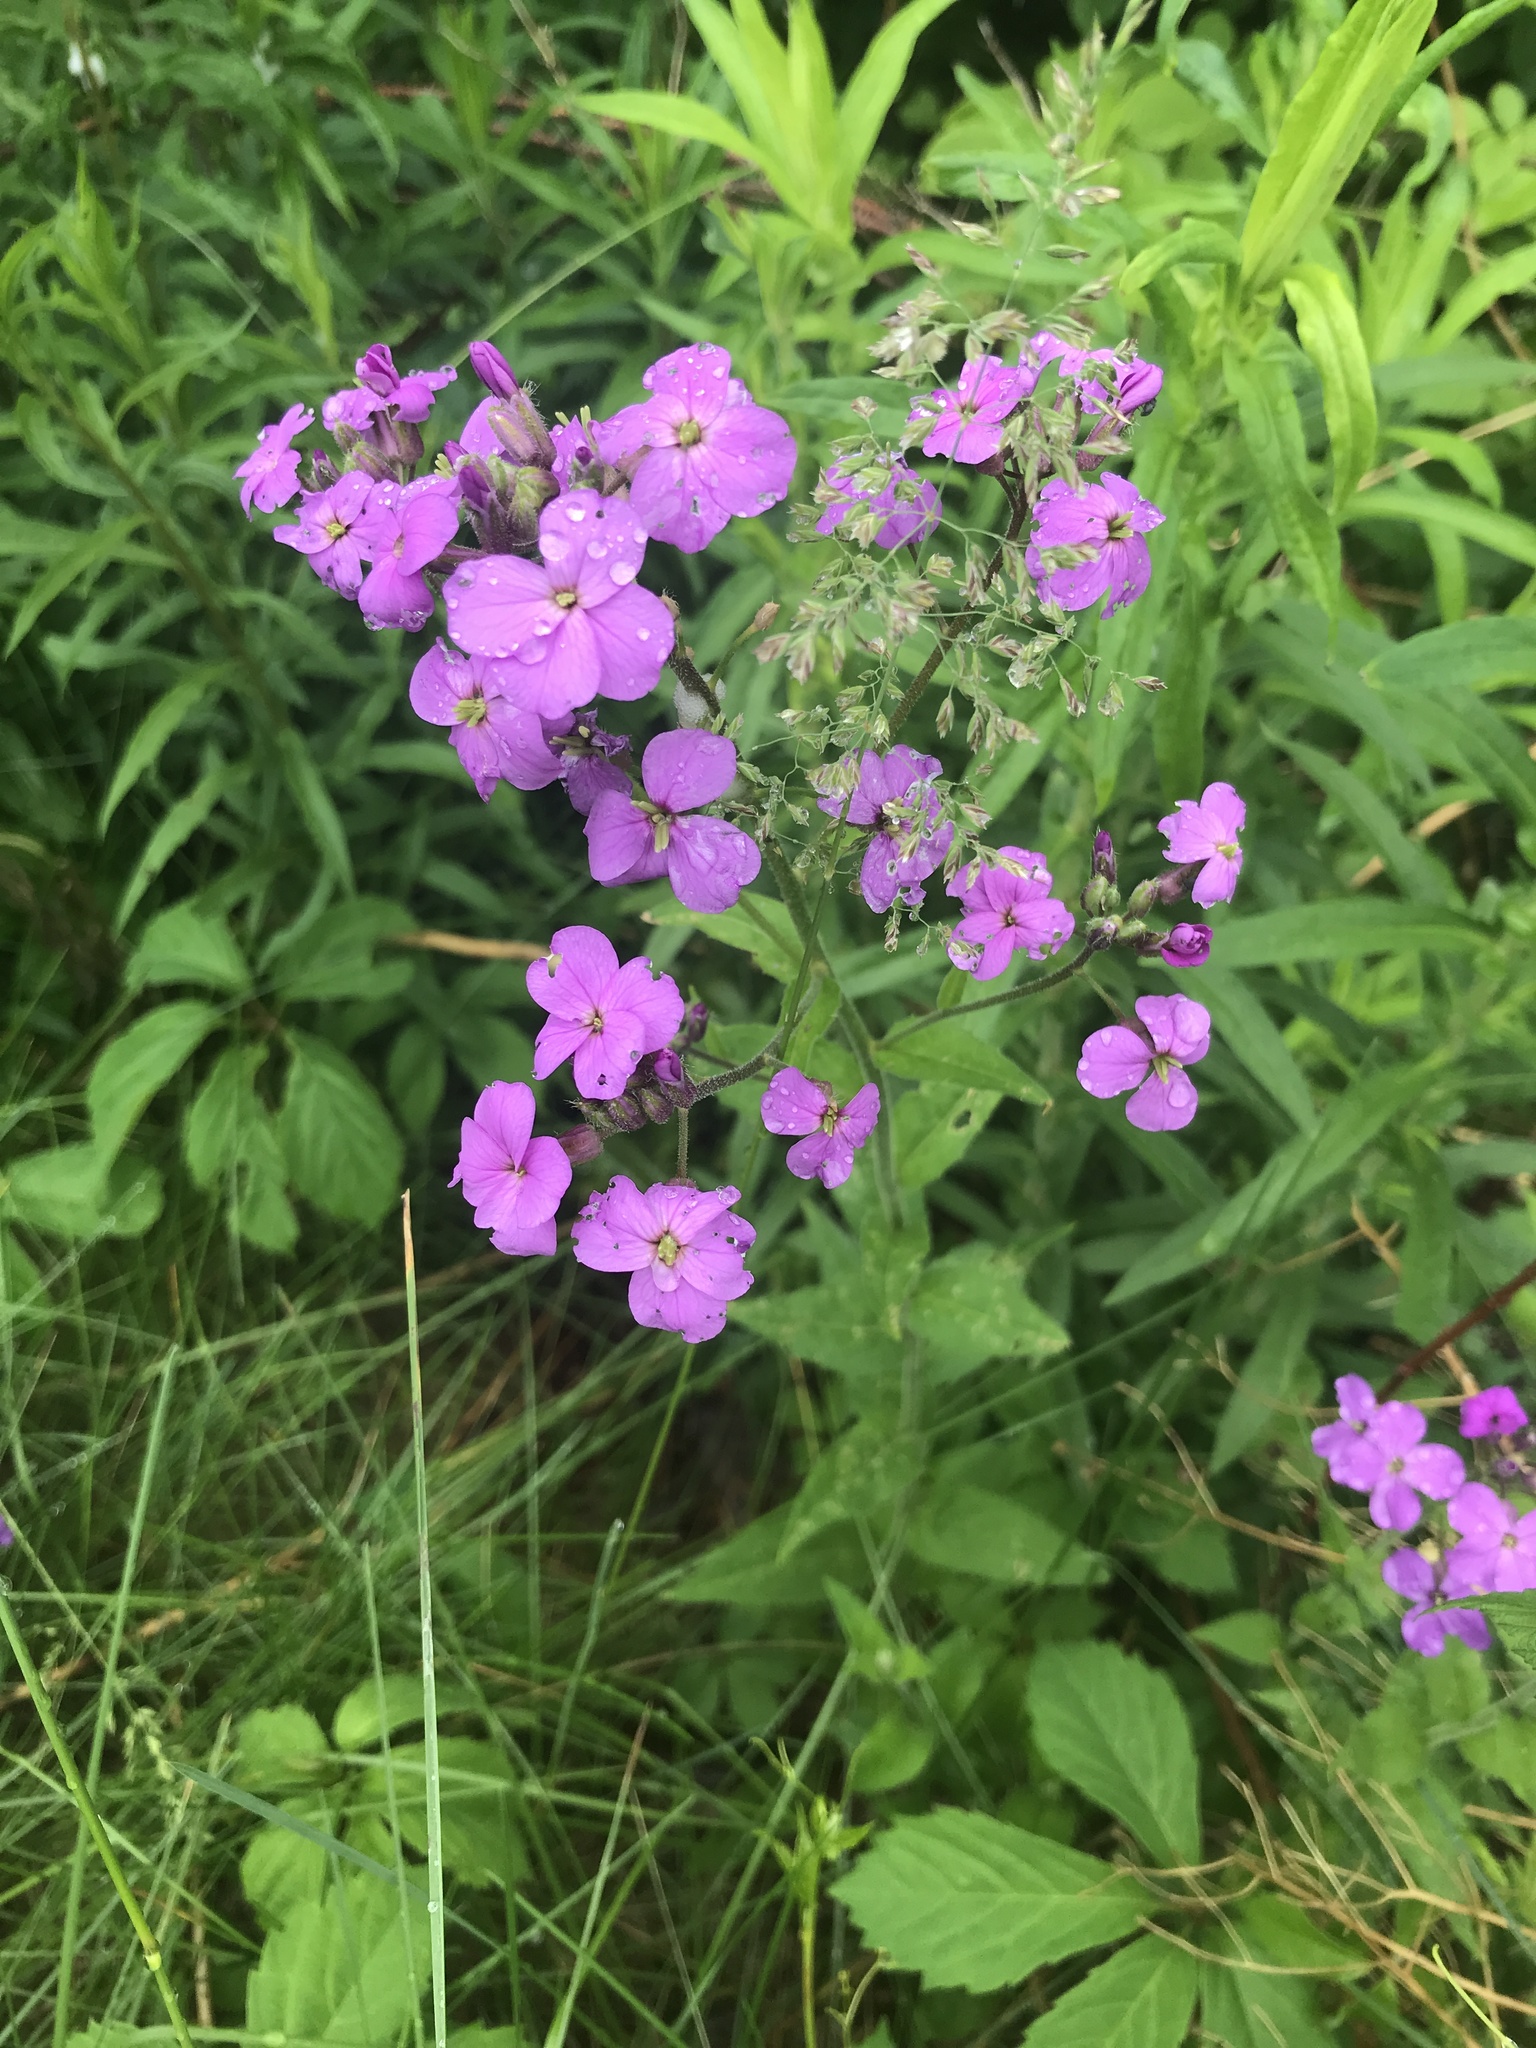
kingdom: Plantae
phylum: Tracheophyta
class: Magnoliopsida
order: Brassicales
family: Brassicaceae
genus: Hesperis
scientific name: Hesperis matronalis
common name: Dame's-violet
